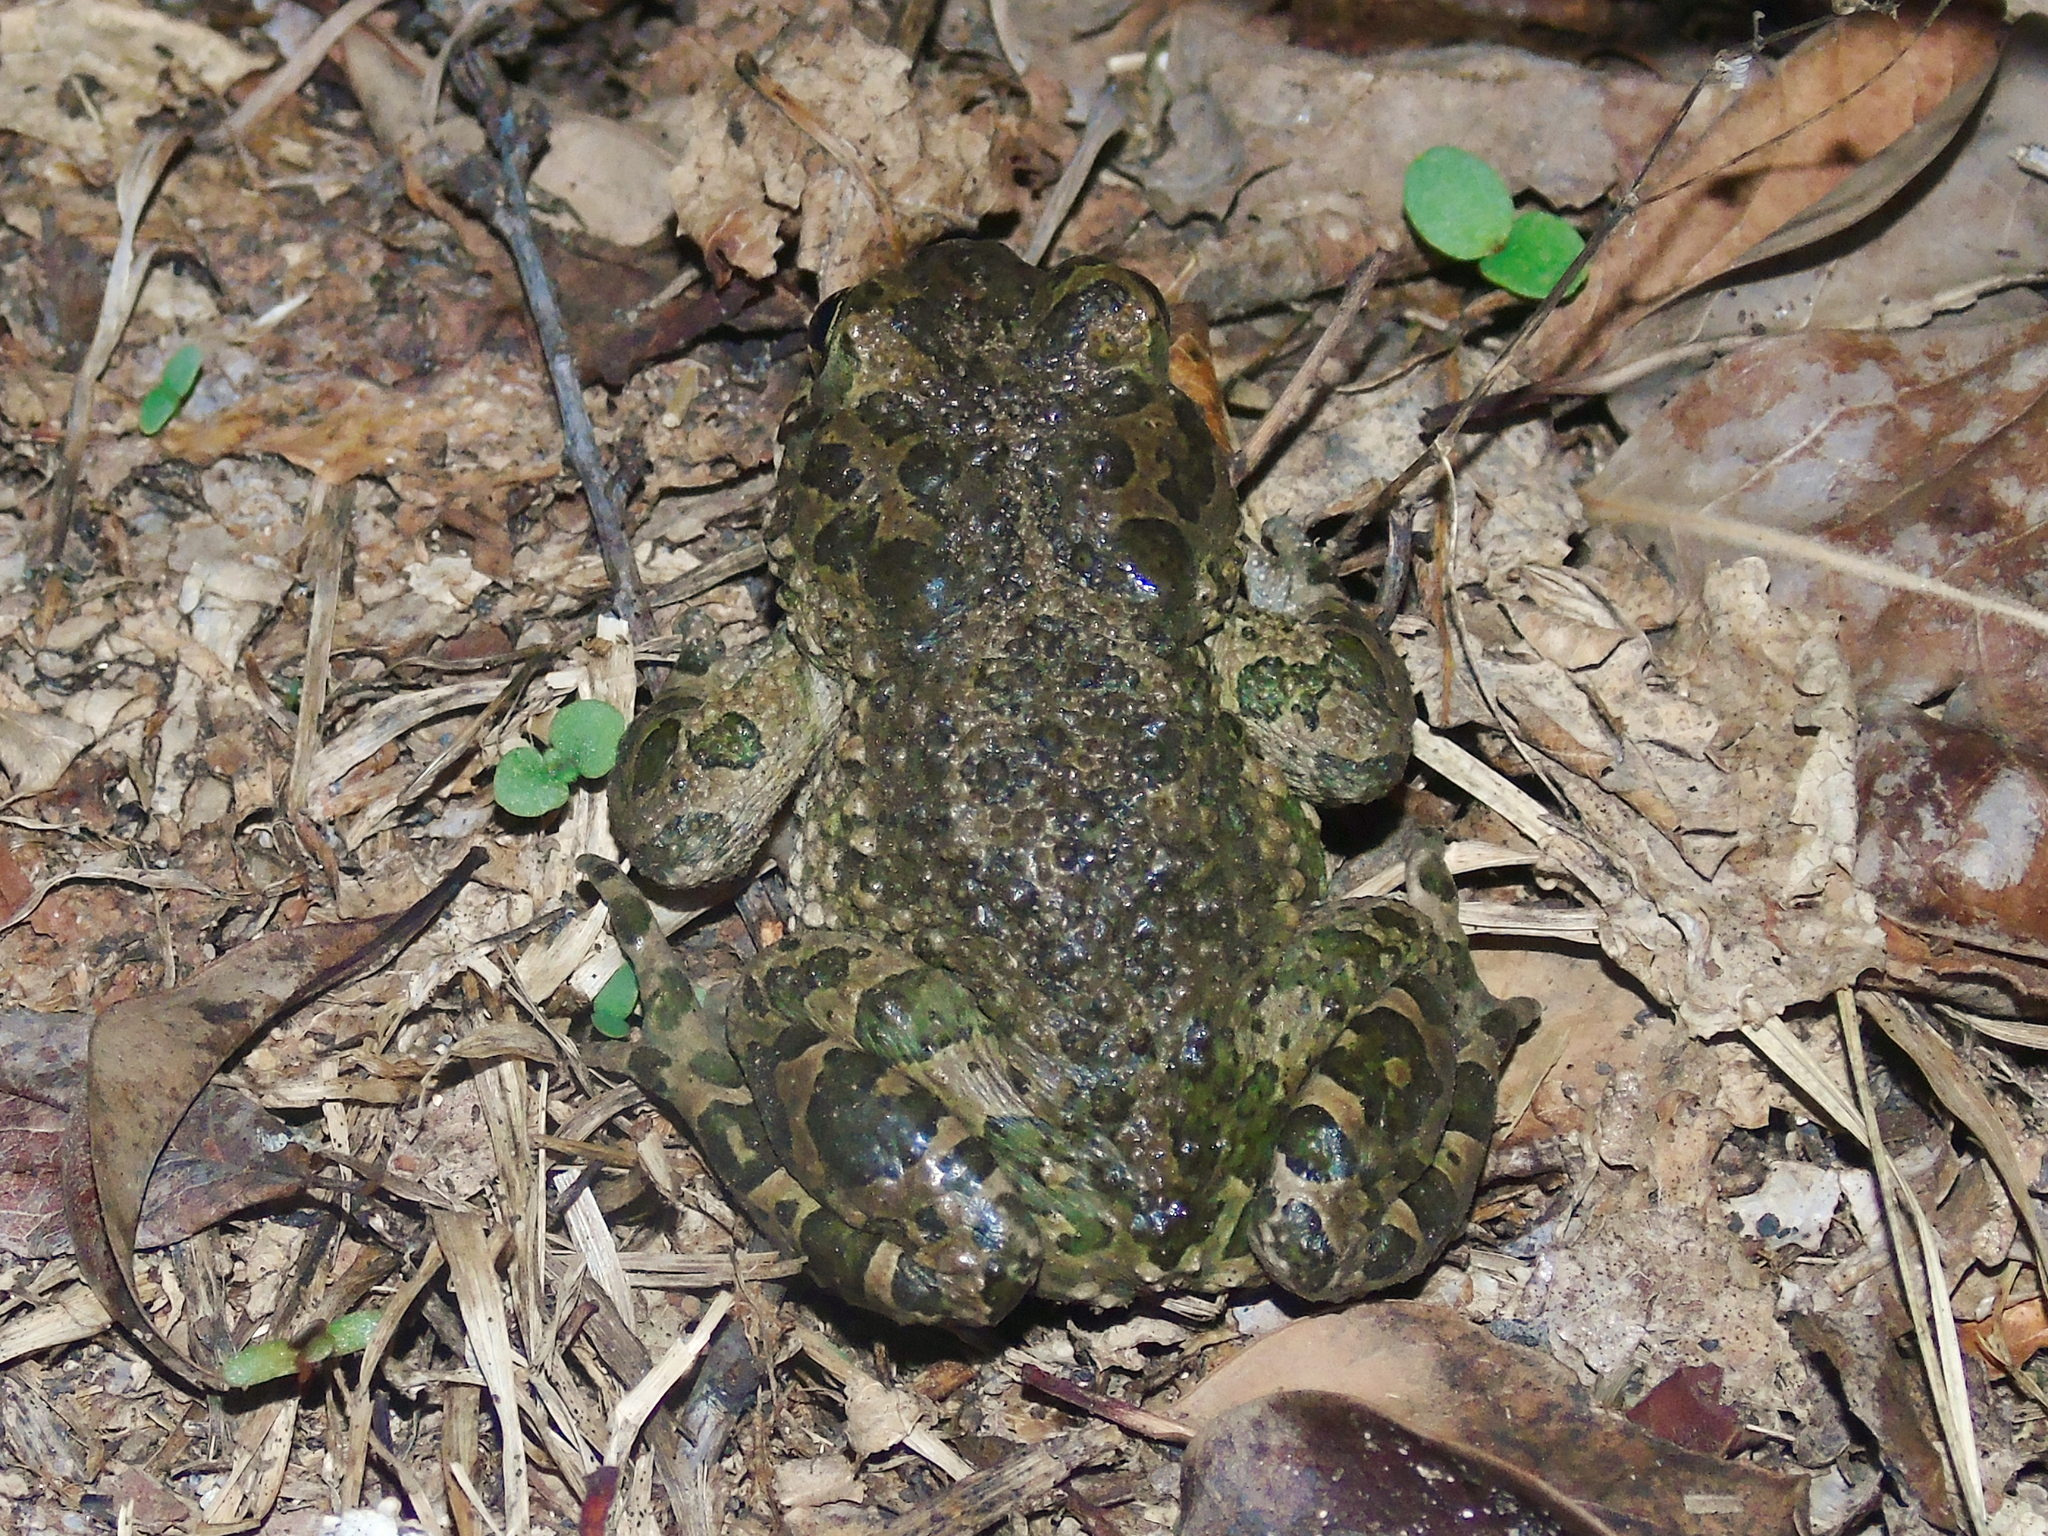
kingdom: Animalia
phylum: Chordata
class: Amphibia
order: Anura
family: Bufonidae
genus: Bufotes
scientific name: Bufotes viridis
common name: European green toad
